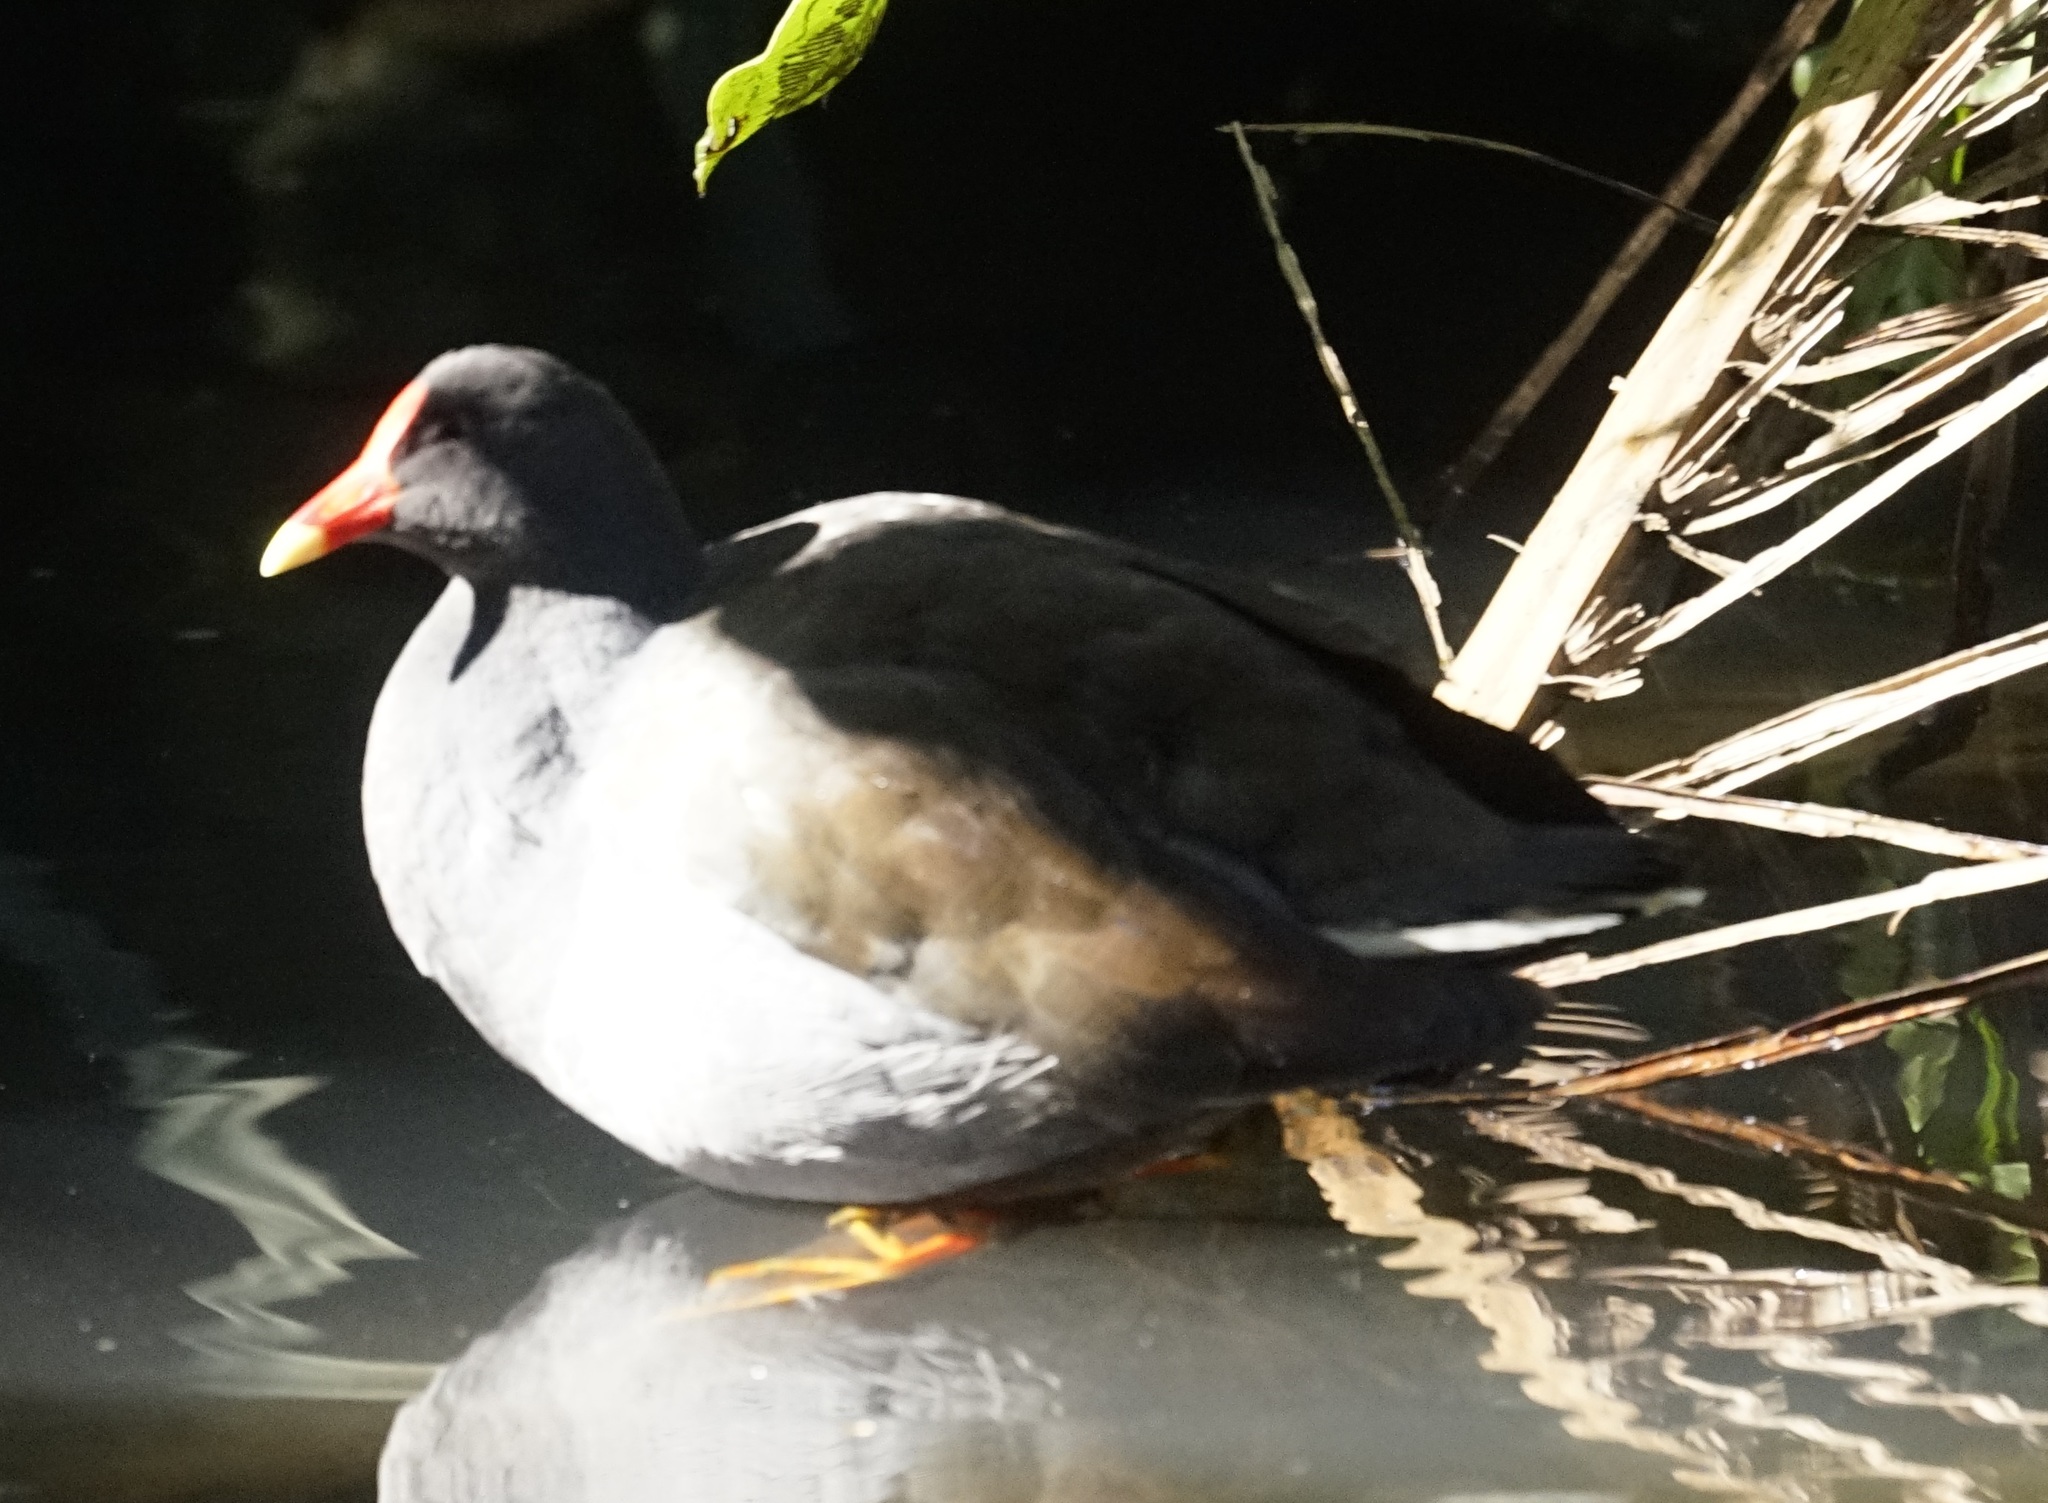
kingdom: Animalia
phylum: Chordata
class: Aves
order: Gruiformes
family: Rallidae
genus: Gallinula
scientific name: Gallinula tenebrosa
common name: Dusky moorhen
